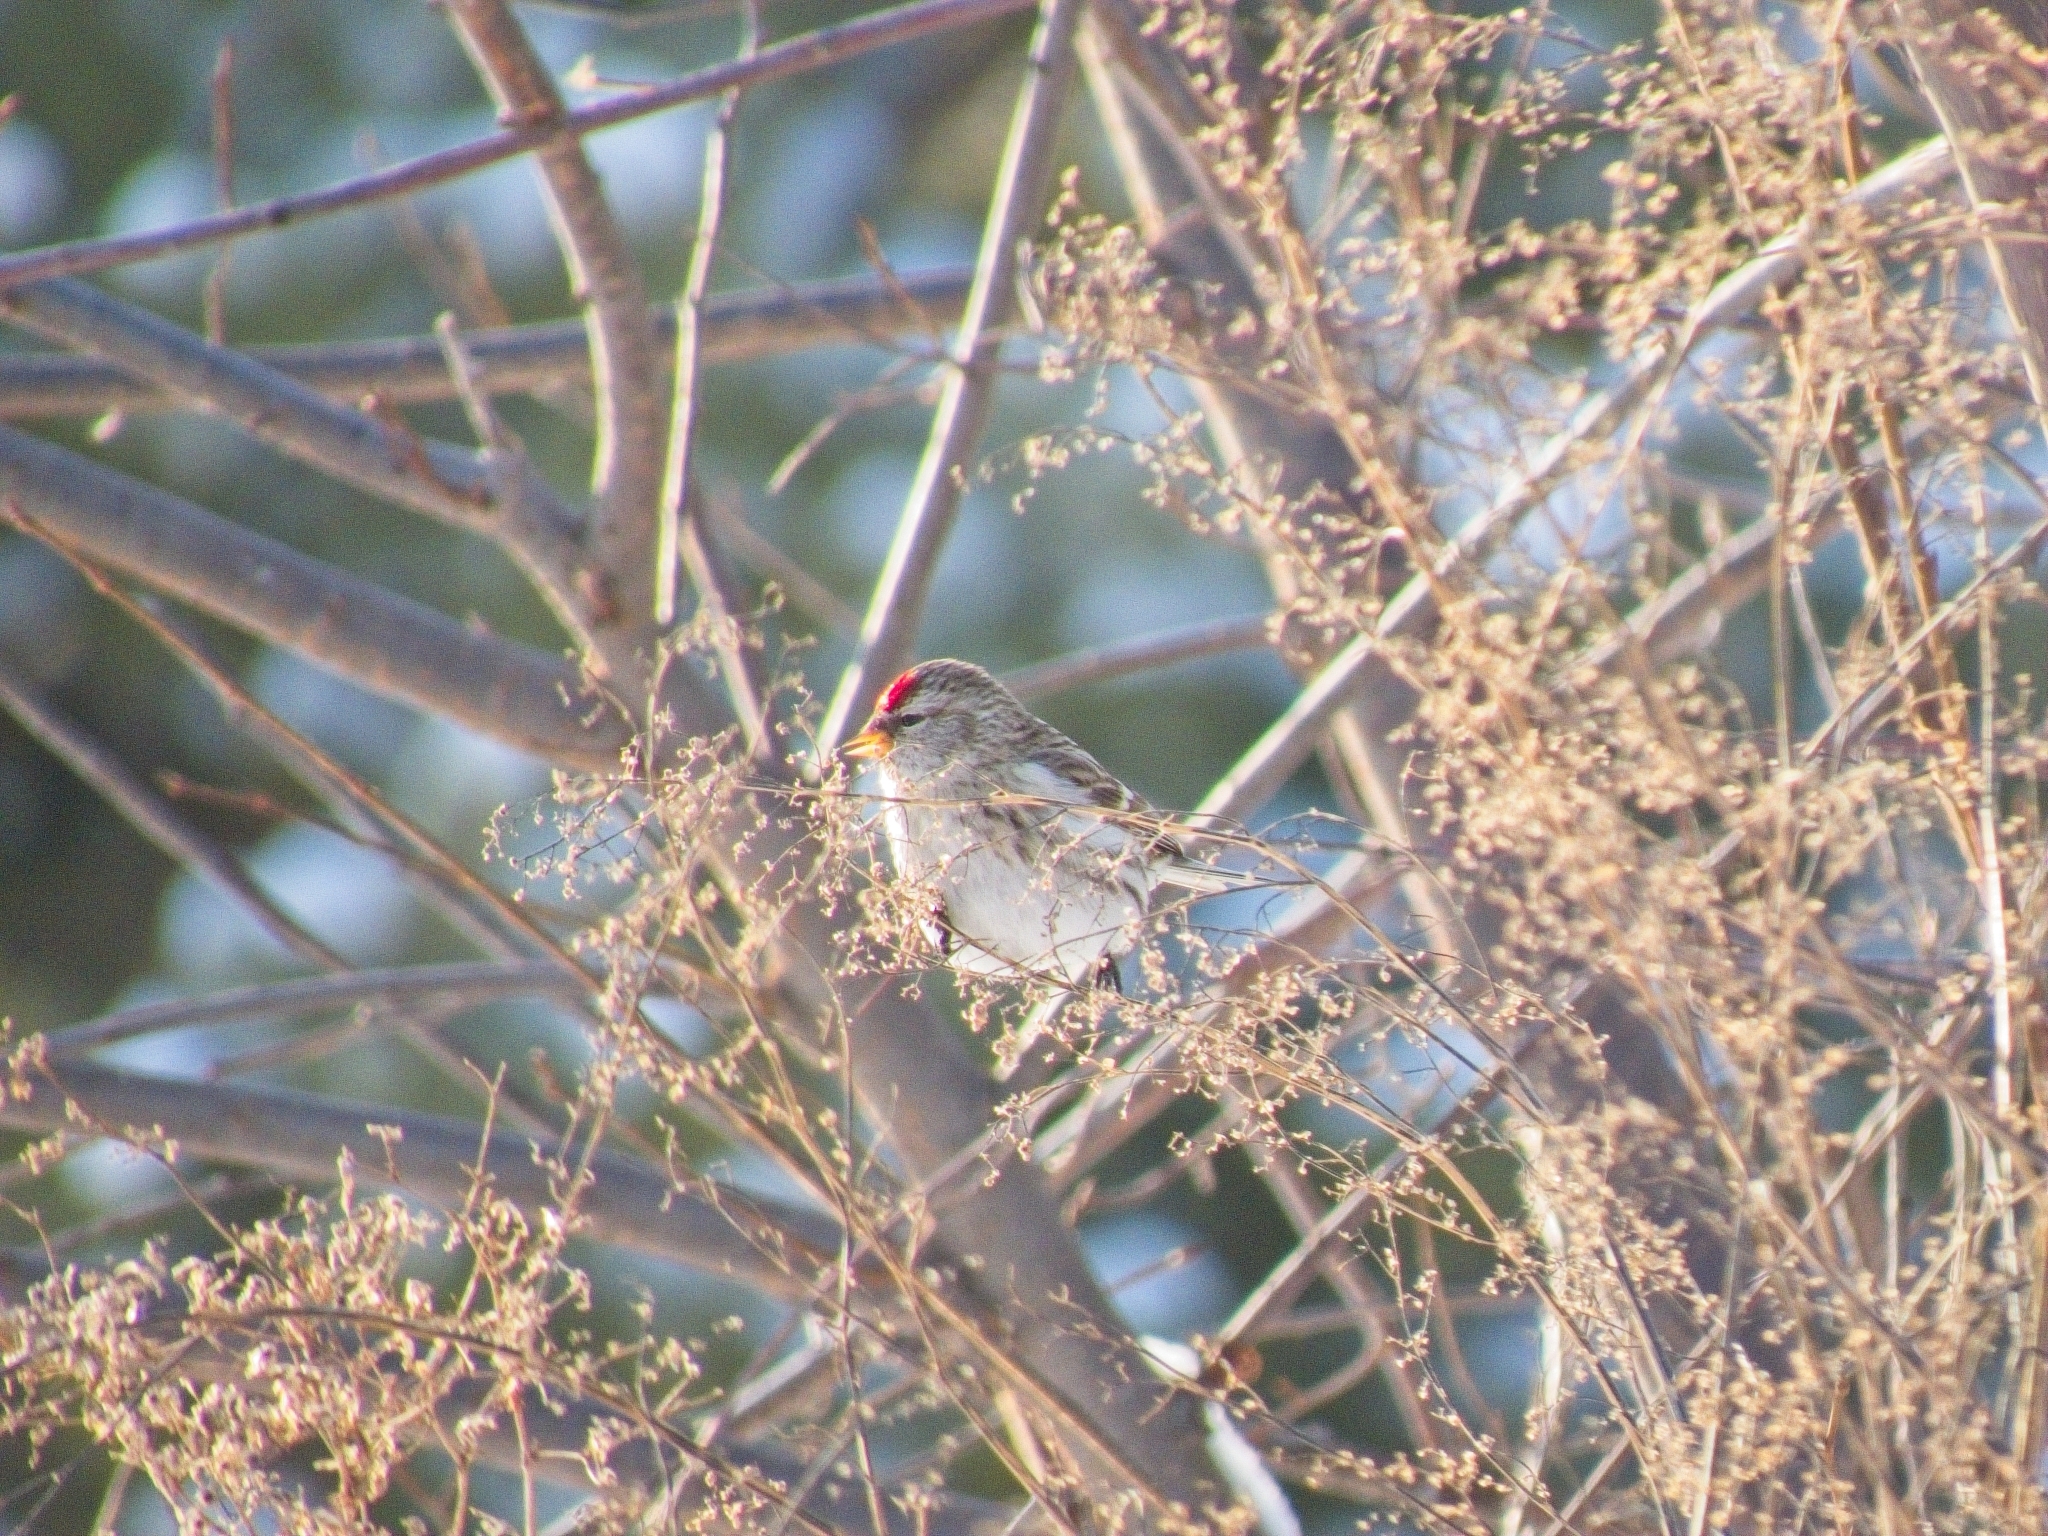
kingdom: Animalia
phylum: Chordata
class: Aves
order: Passeriformes
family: Fringillidae
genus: Acanthis
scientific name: Acanthis hornemanni
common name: Arctic redpoll
